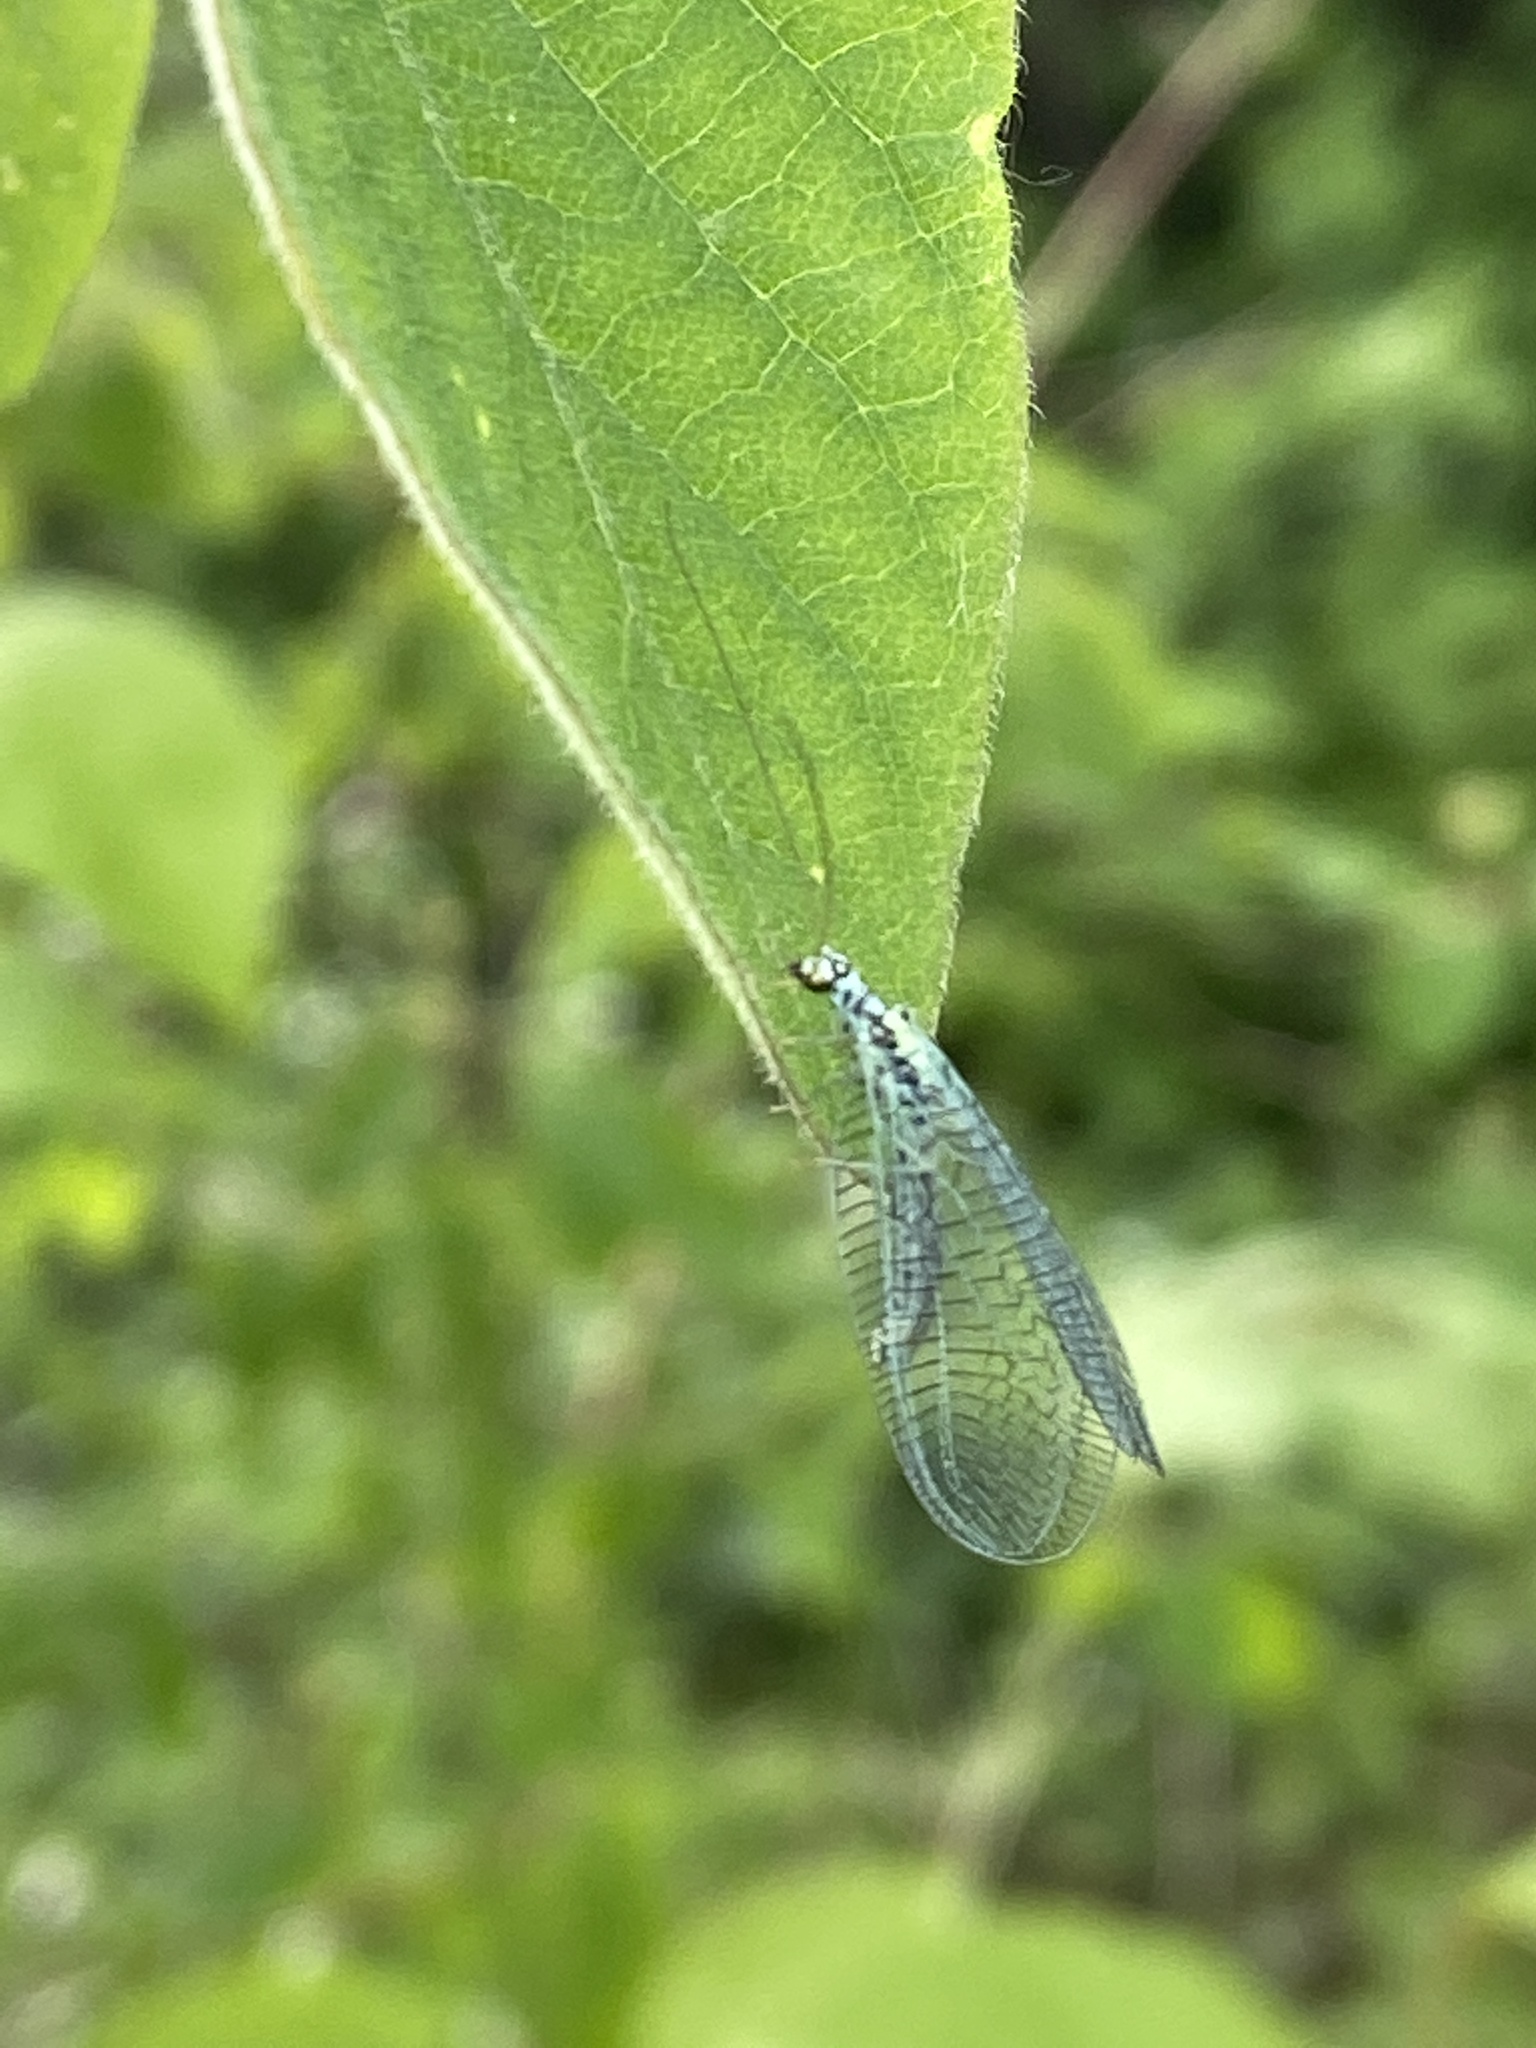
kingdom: Animalia
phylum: Arthropoda
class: Insecta
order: Neuroptera
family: Chrysopidae
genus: Chrysopa
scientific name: Chrysopa perla
